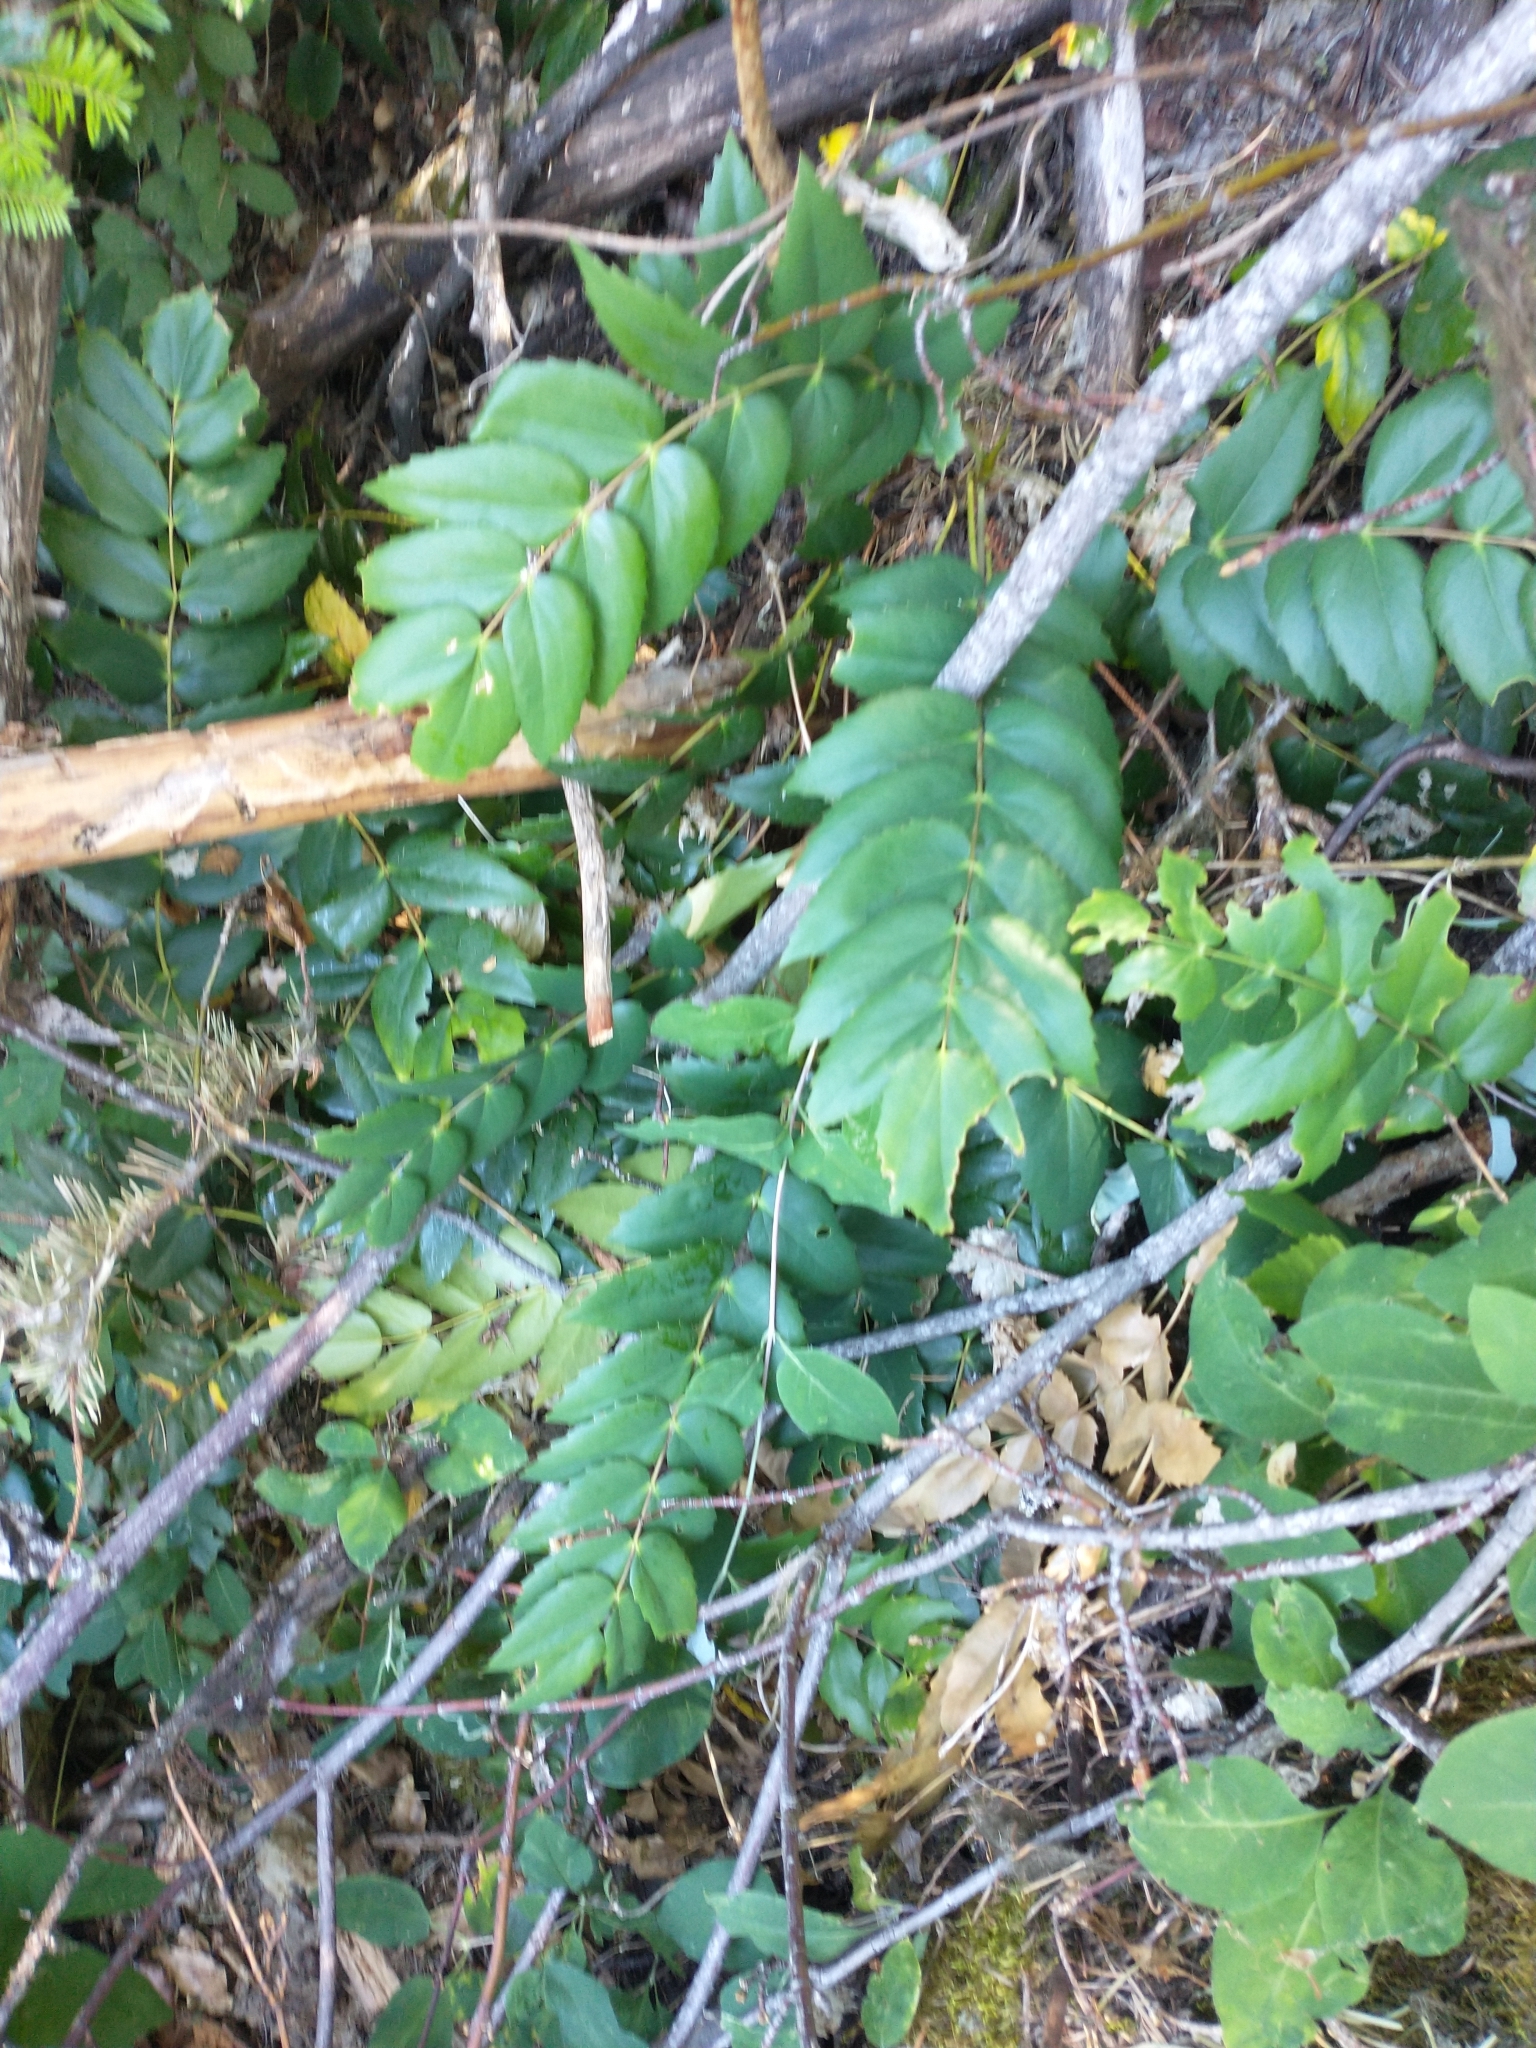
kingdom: Plantae
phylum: Tracheophyta
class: Magnoliopsida
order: Ranunculales
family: Berberidaceae
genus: Mahonia
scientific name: Mahonia nervosa
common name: Cascade oregon-grape
